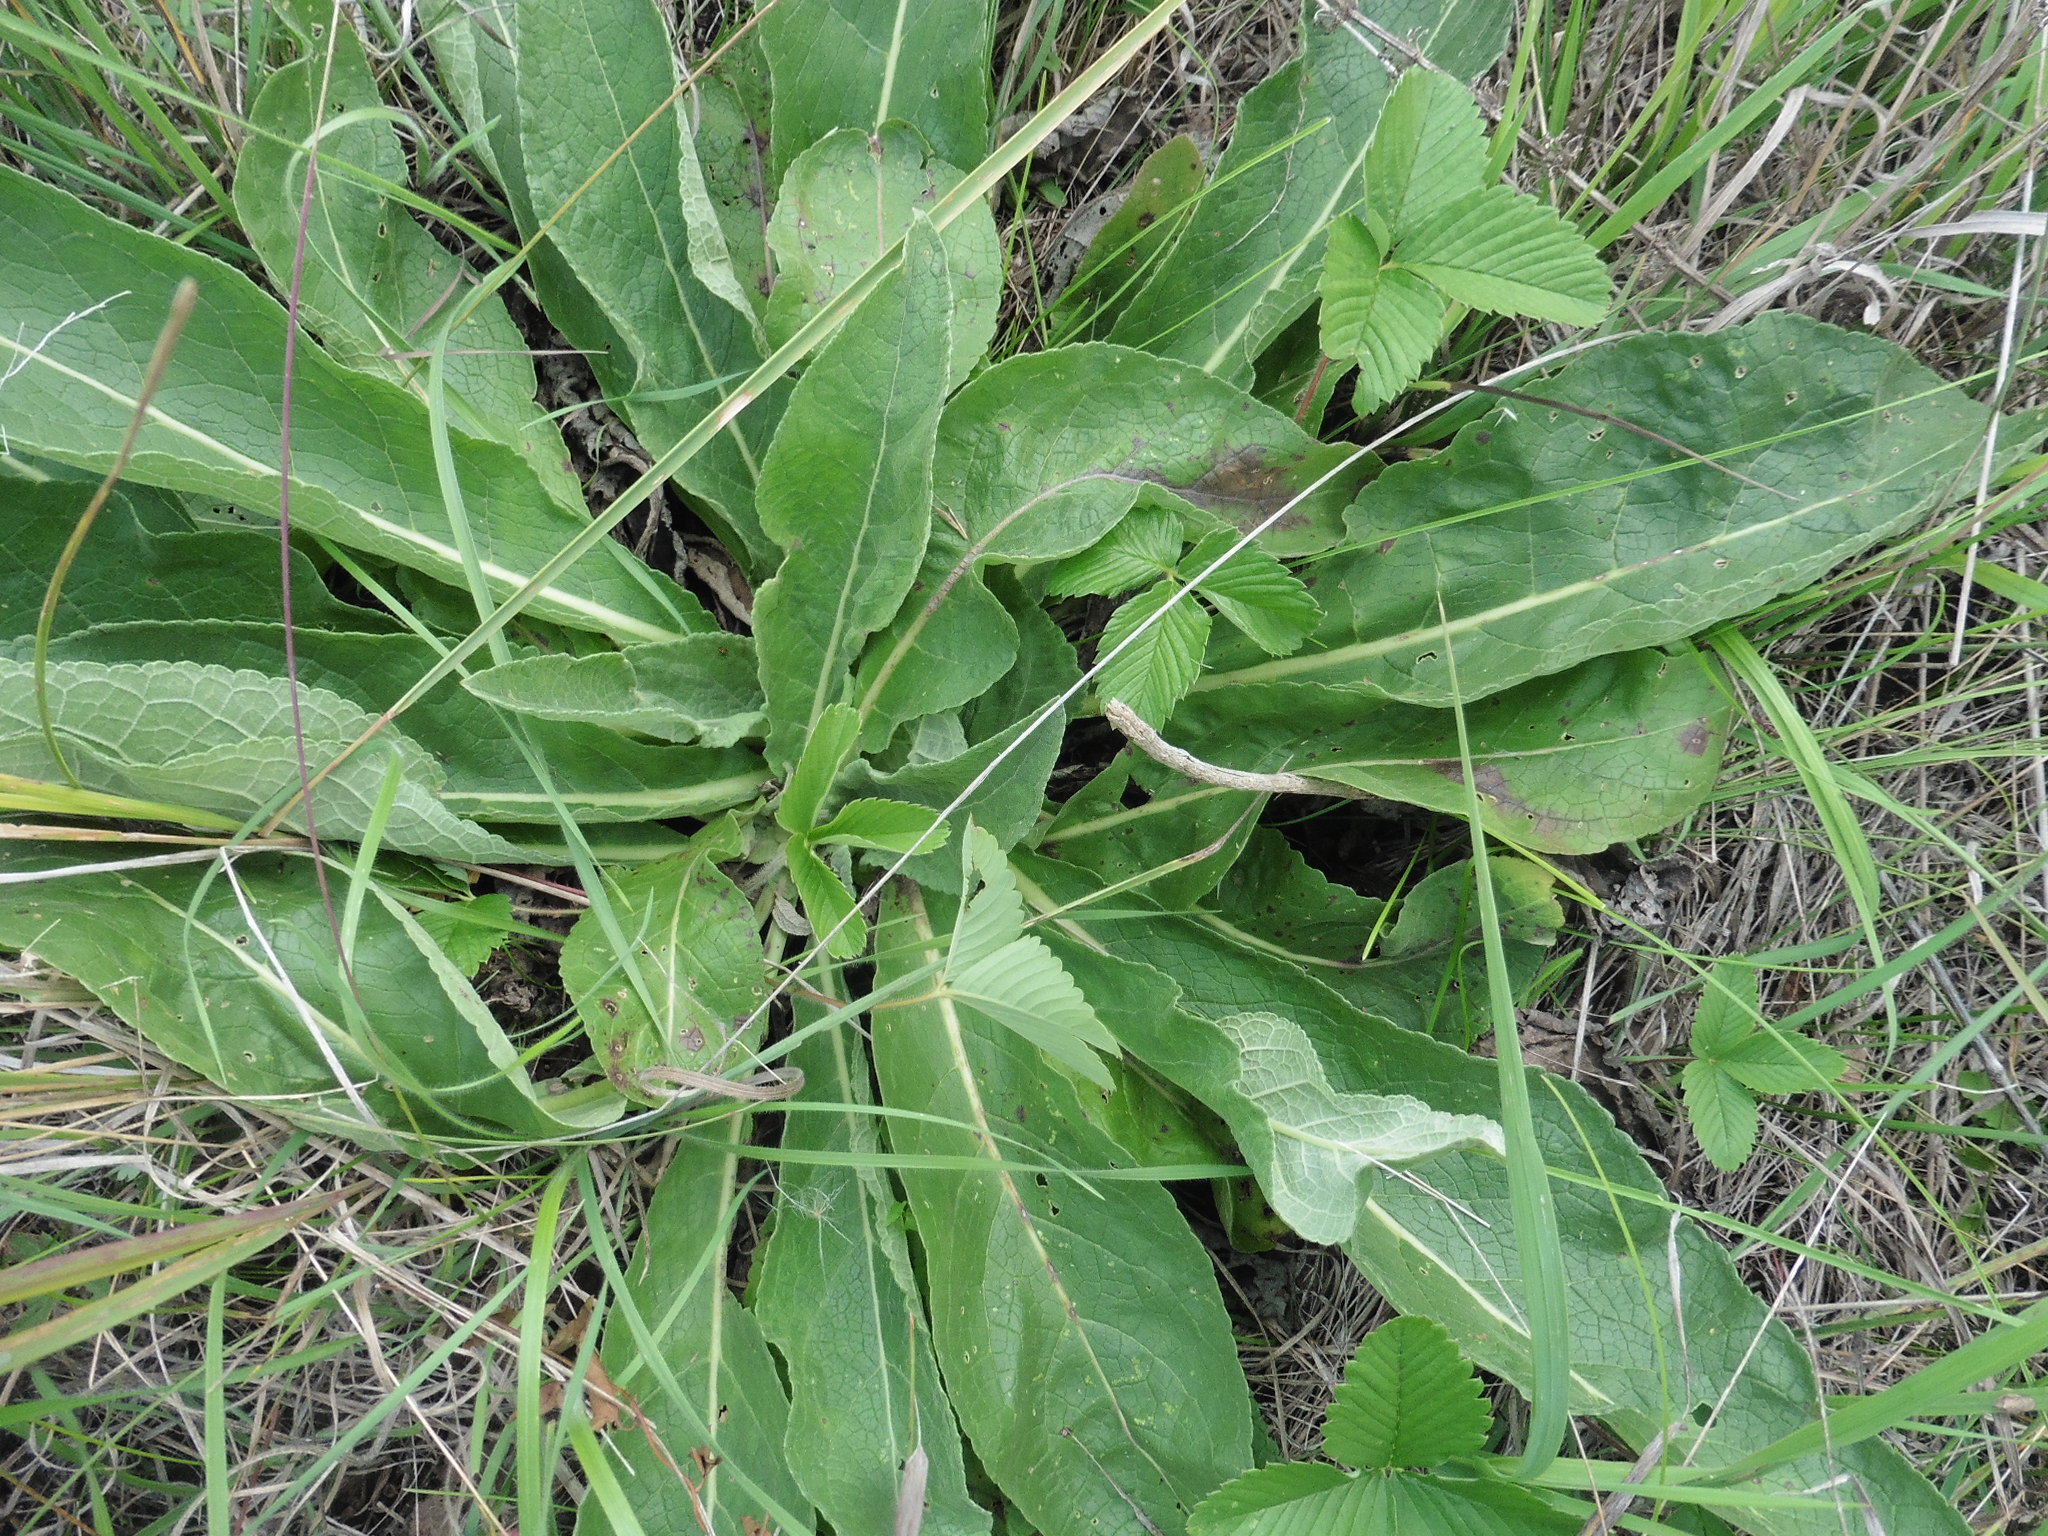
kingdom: Plantae
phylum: Tracheophyta
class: Magnoliopsida
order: Lamiales
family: Scrophulariaceae
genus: Verbascum
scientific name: Verbascum lychnitis
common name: White mullein
